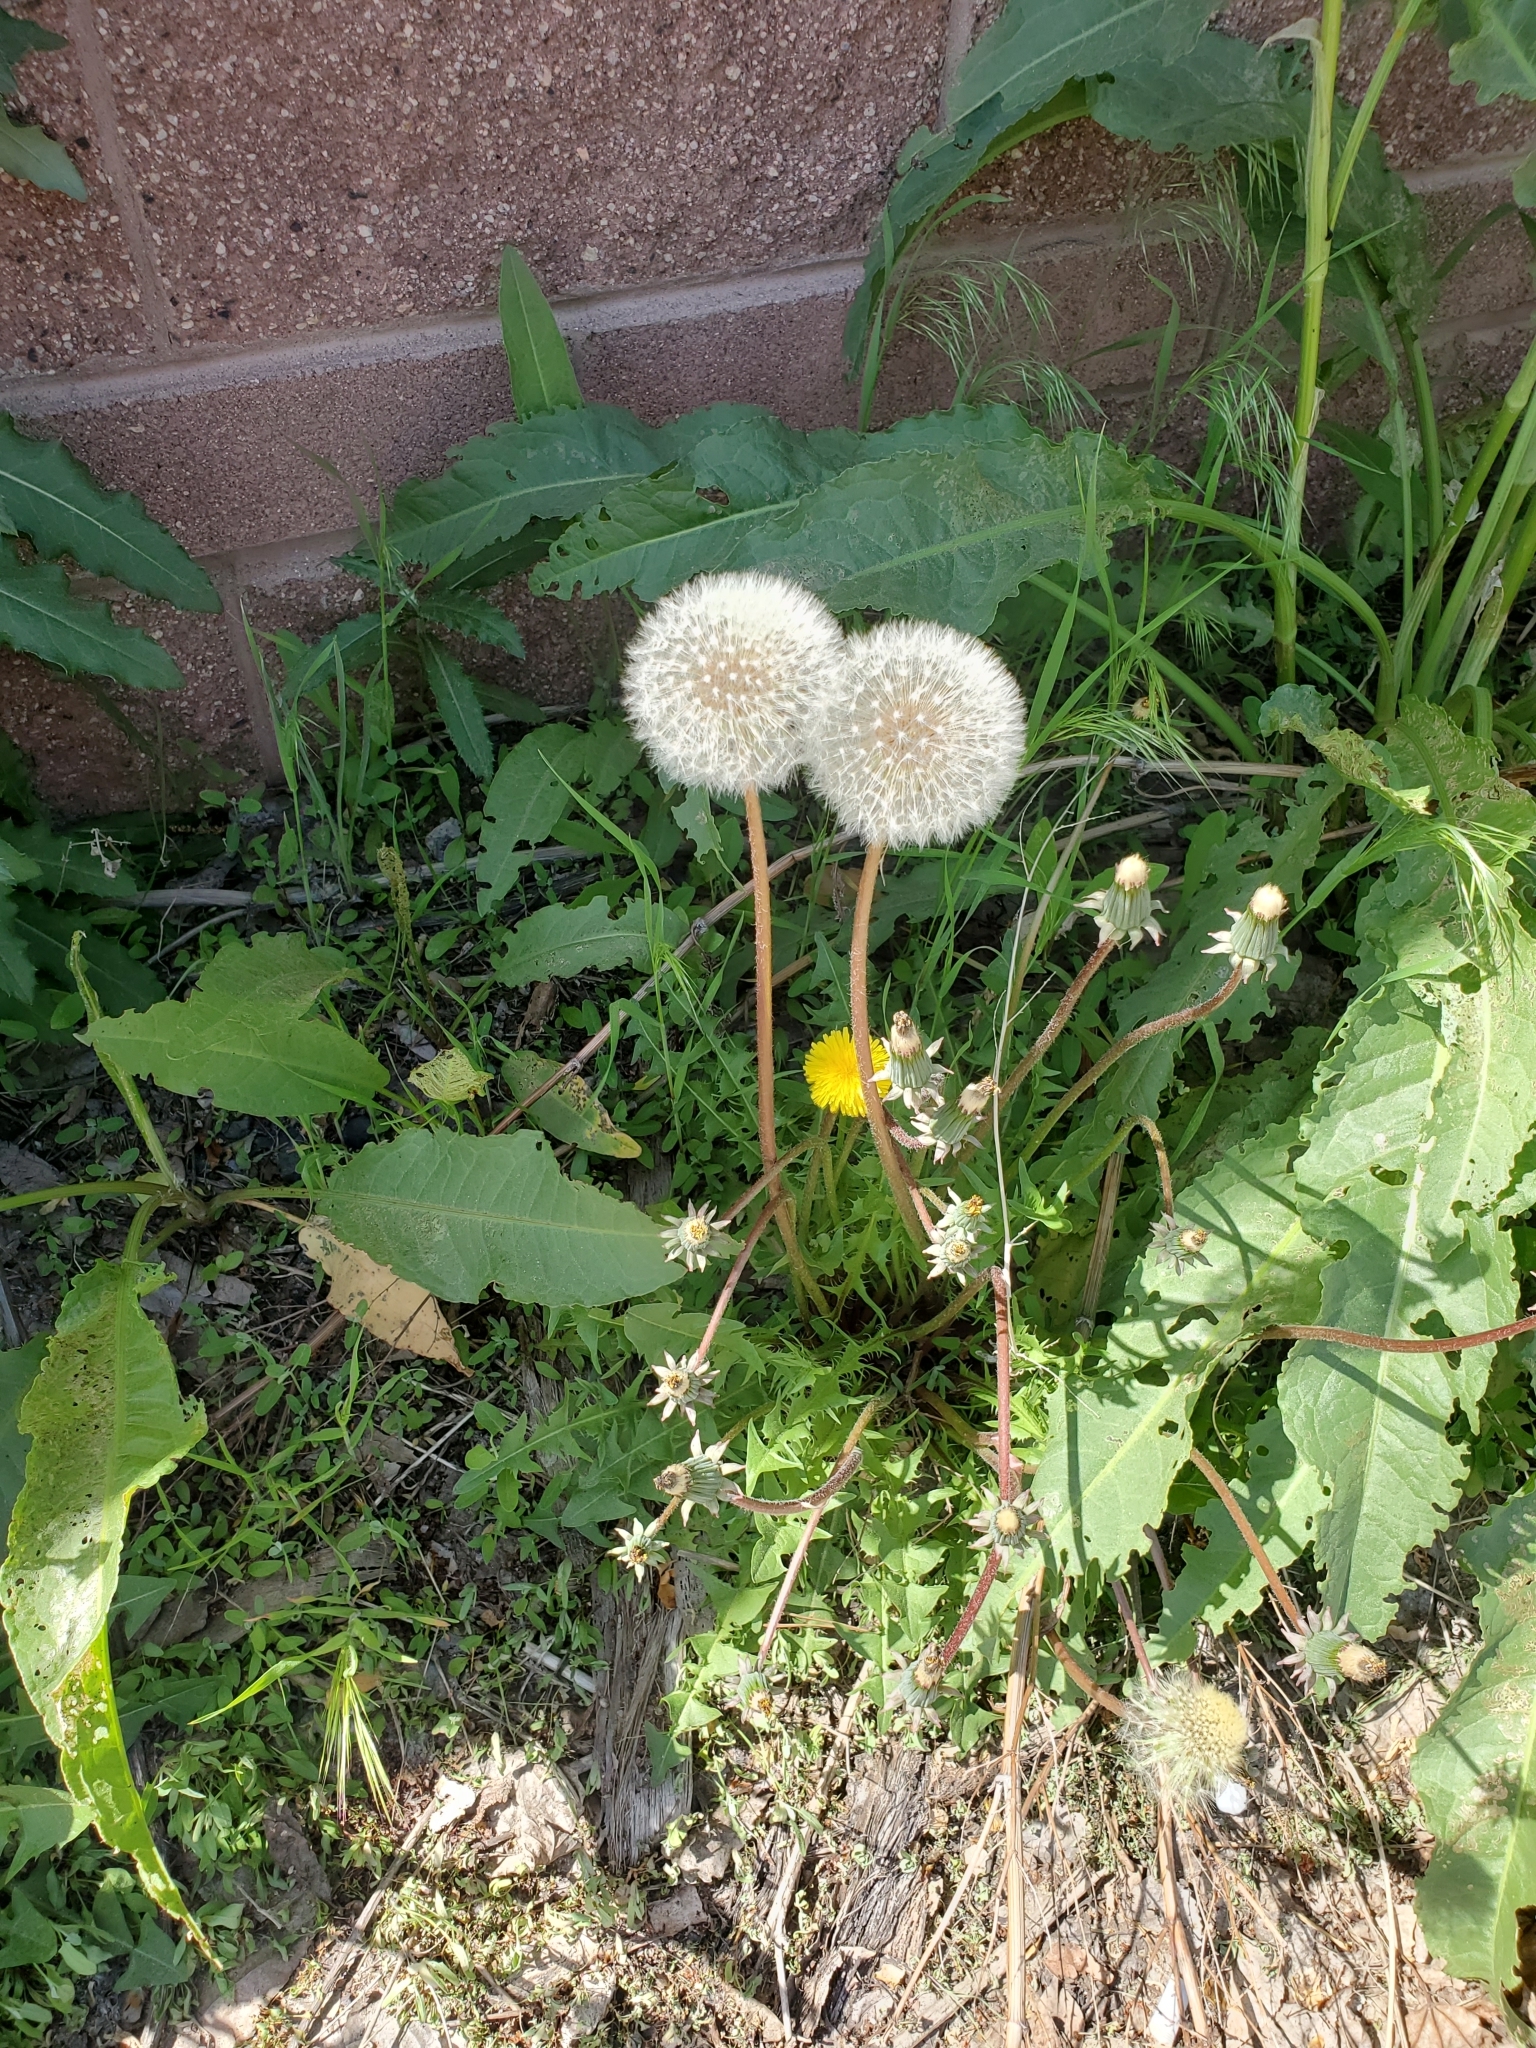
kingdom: Plantae
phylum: Tracheophyta
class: Magnoliopsida
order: Asterales
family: Asteraceae
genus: Taraxacum
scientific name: Taraxacum officinale
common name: Common dandelion
